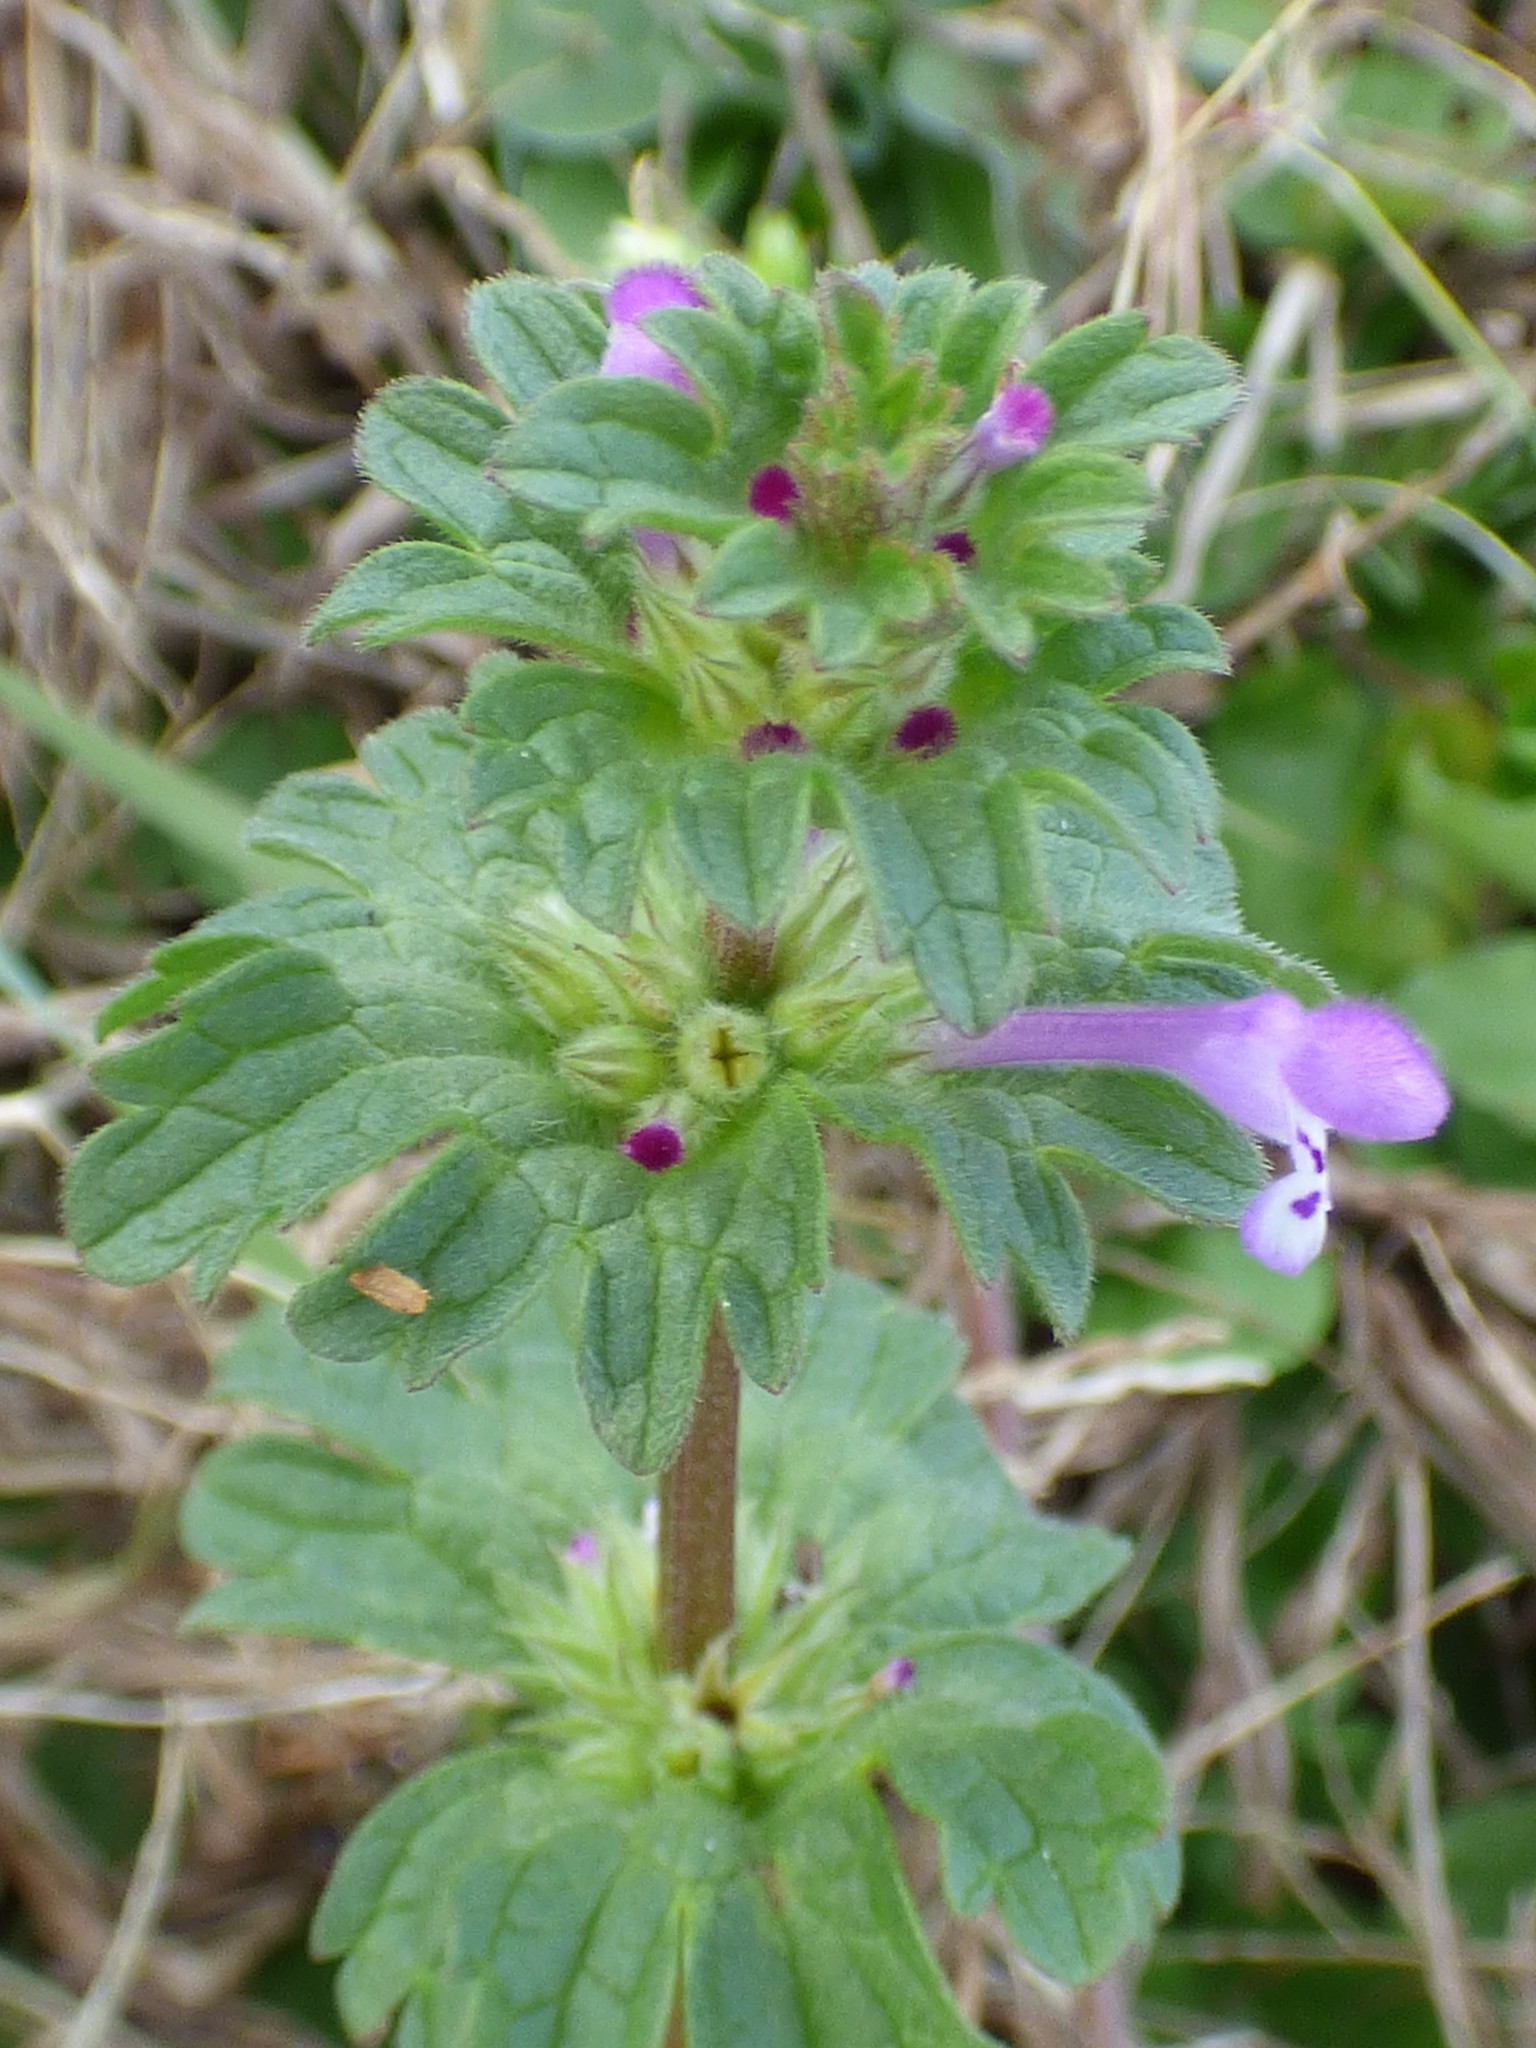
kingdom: Plantae
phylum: Tracheophyta
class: Magnoliopsida
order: Lamiales
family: Lamiaceae
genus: Lamium
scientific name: Lamium amplexicaule
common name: Henbit dead-nettle
